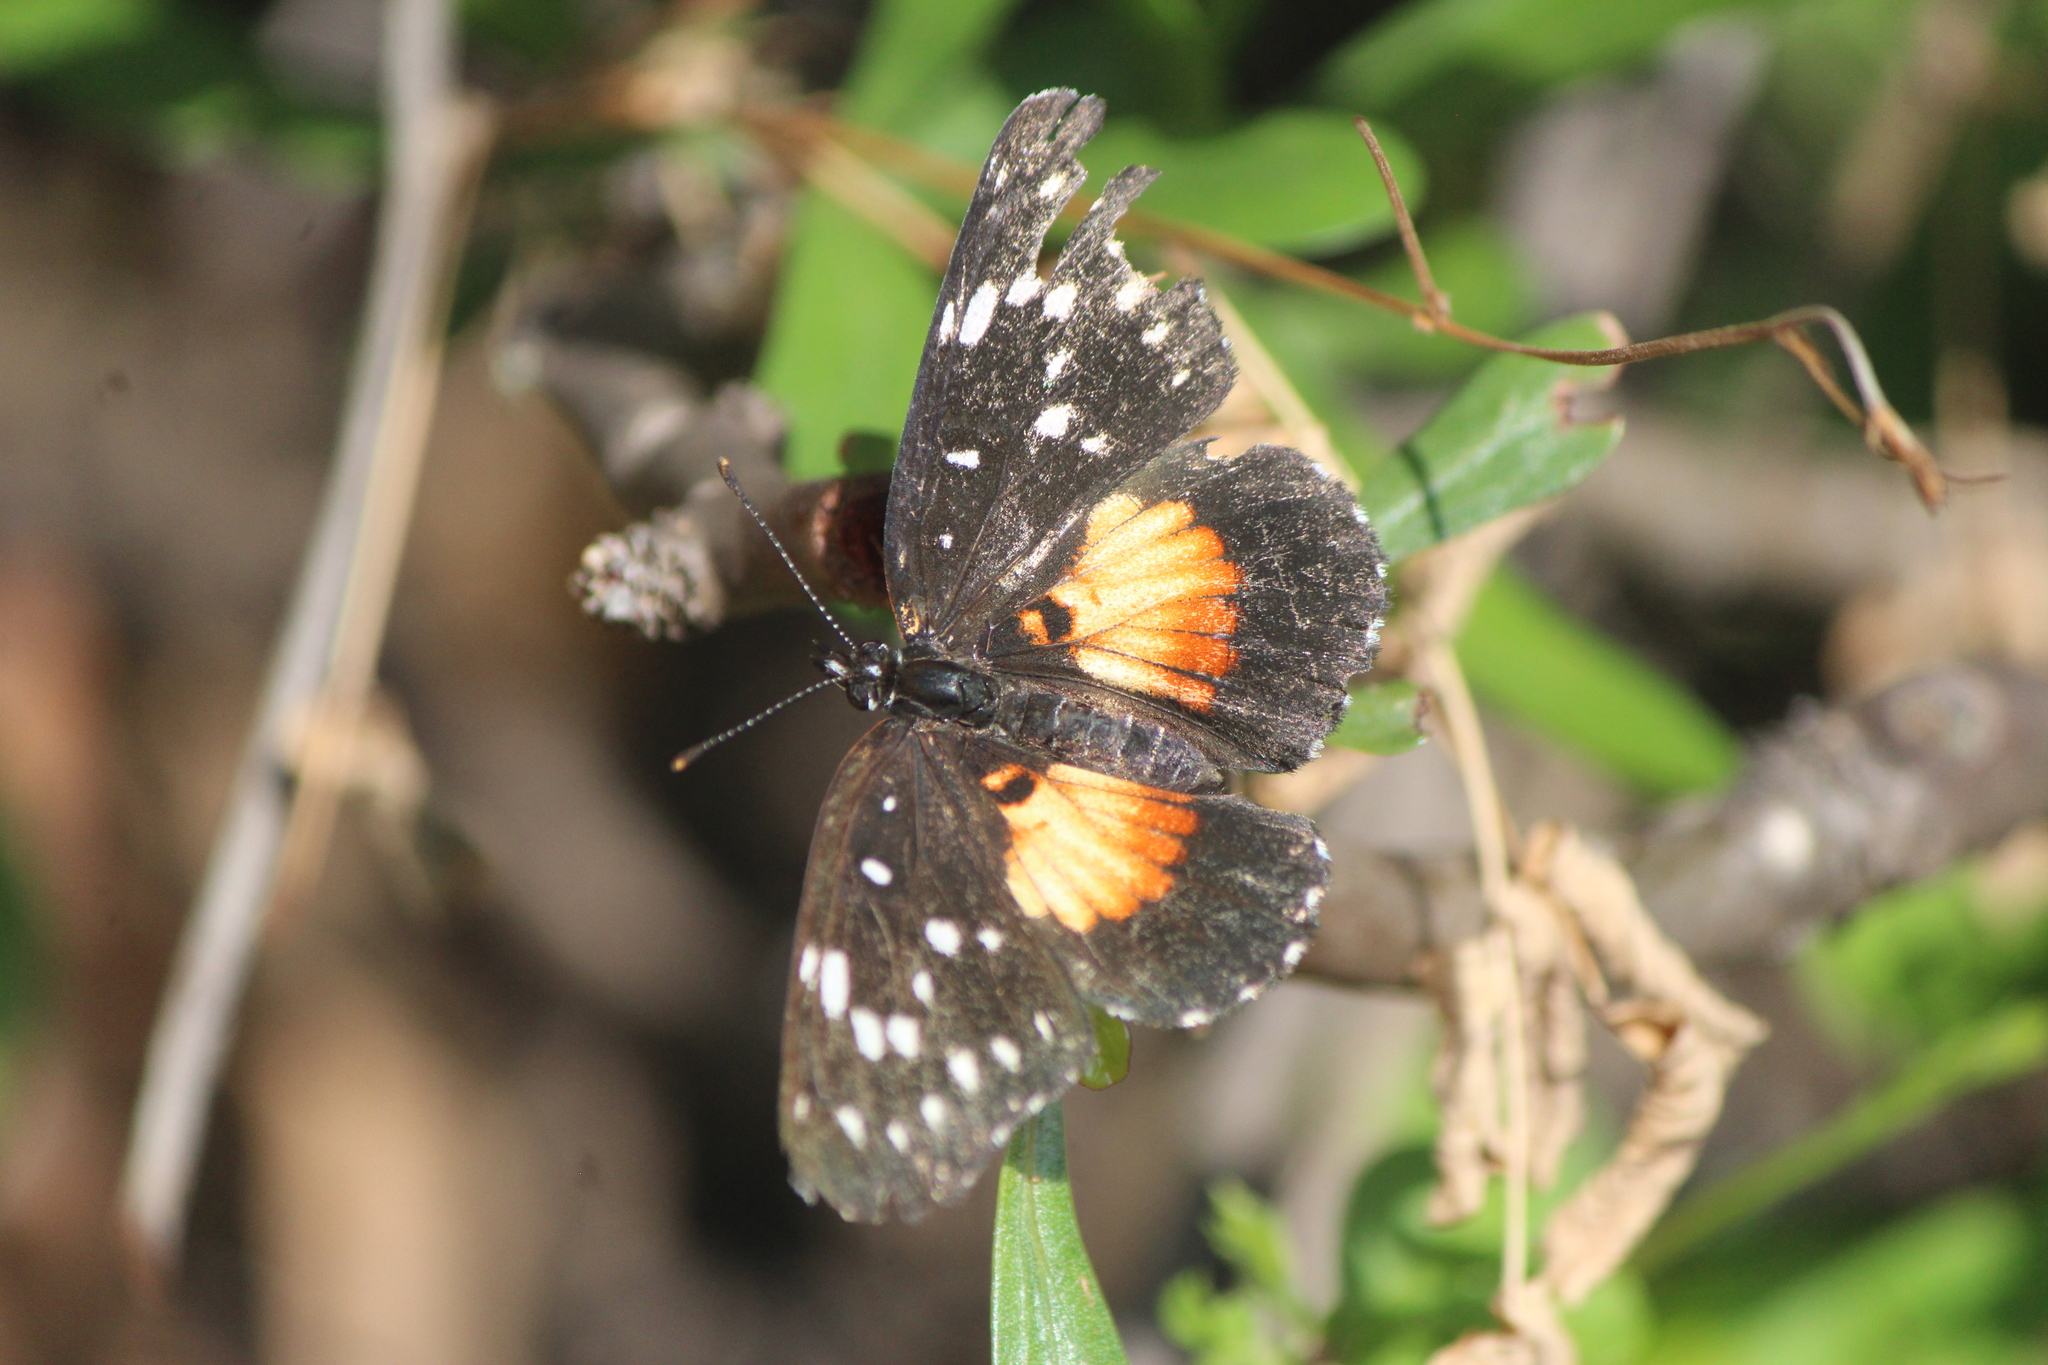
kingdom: Animalia
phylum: Arthropoda
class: Insecta
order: Lepidoptera
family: Nymphalidae
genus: Chlosyne
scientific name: Chlosyne rosita
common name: Rosita patch
